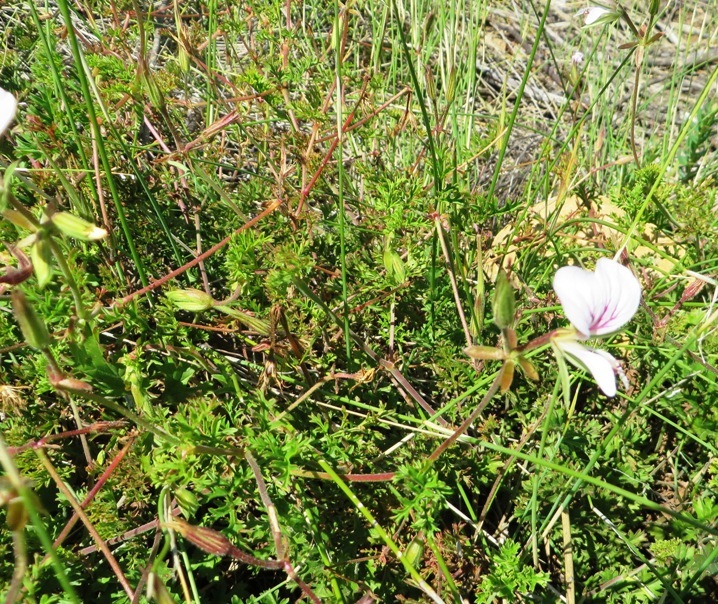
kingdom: Plantae
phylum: Tracheophyta
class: Magnoliopsida
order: Geraniales
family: Geraniaceae
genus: Pelargonium
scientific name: Pelargonium myrrhifolium
